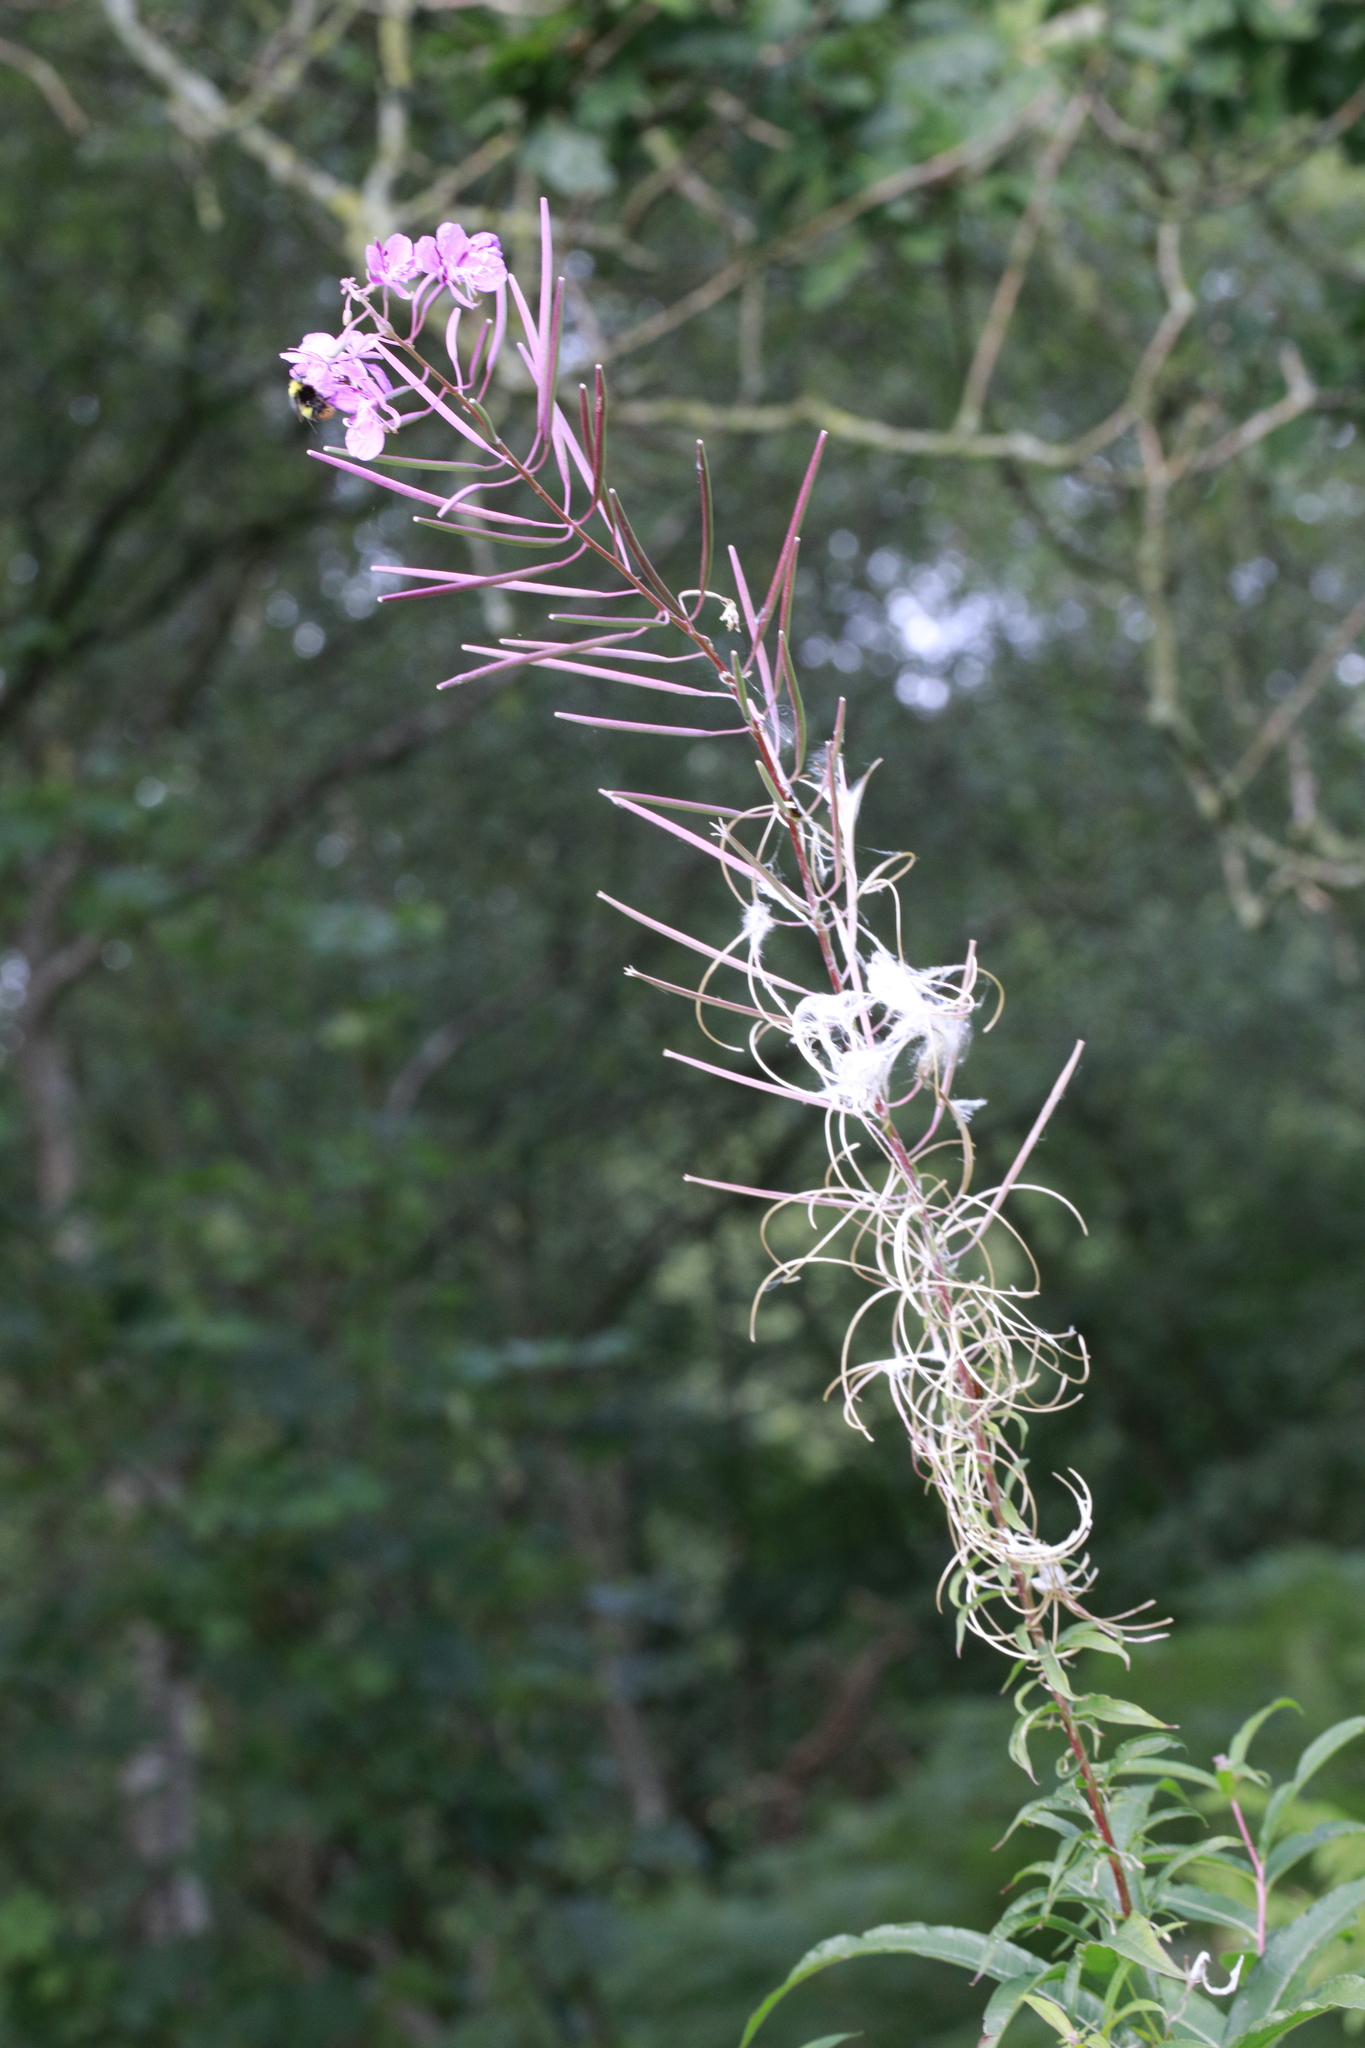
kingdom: Plantae
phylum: Tracheophyta
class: Magnoliopsida
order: Myrtales
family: Onagraceae
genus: Chamaenerion
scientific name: Chamaenerion angustifolium
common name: Fireweed
